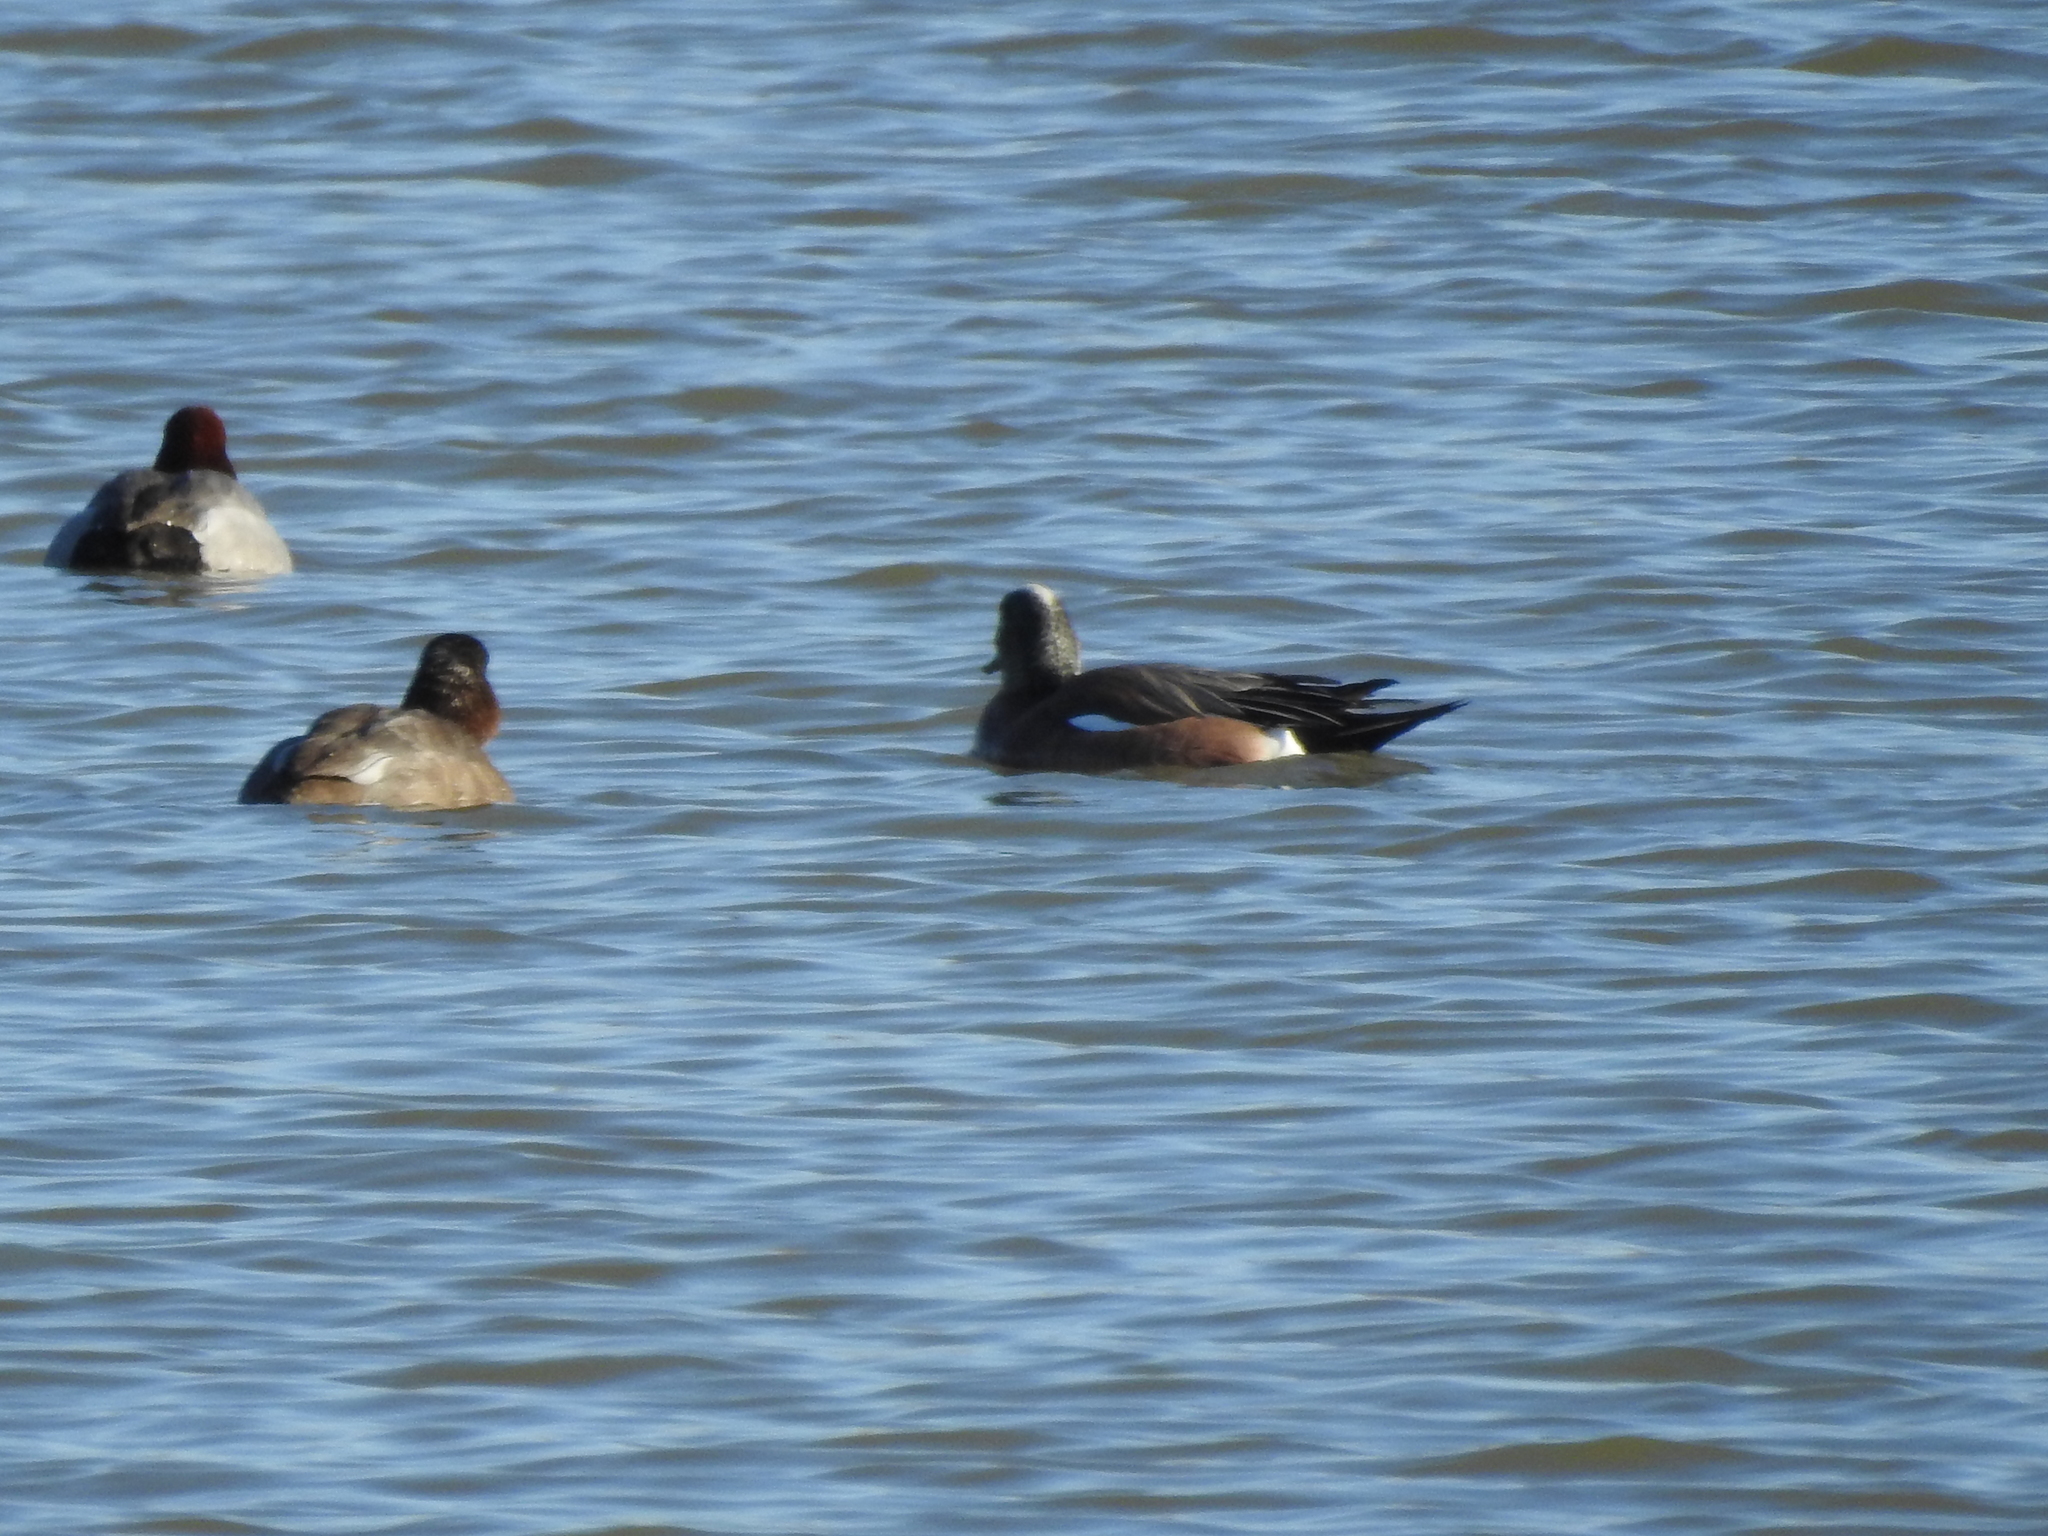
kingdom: Animalia
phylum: Chordata
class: Aves
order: Anseriformes
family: Anatidae
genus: Mareca
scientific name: Mareca americana
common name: American wigeon
